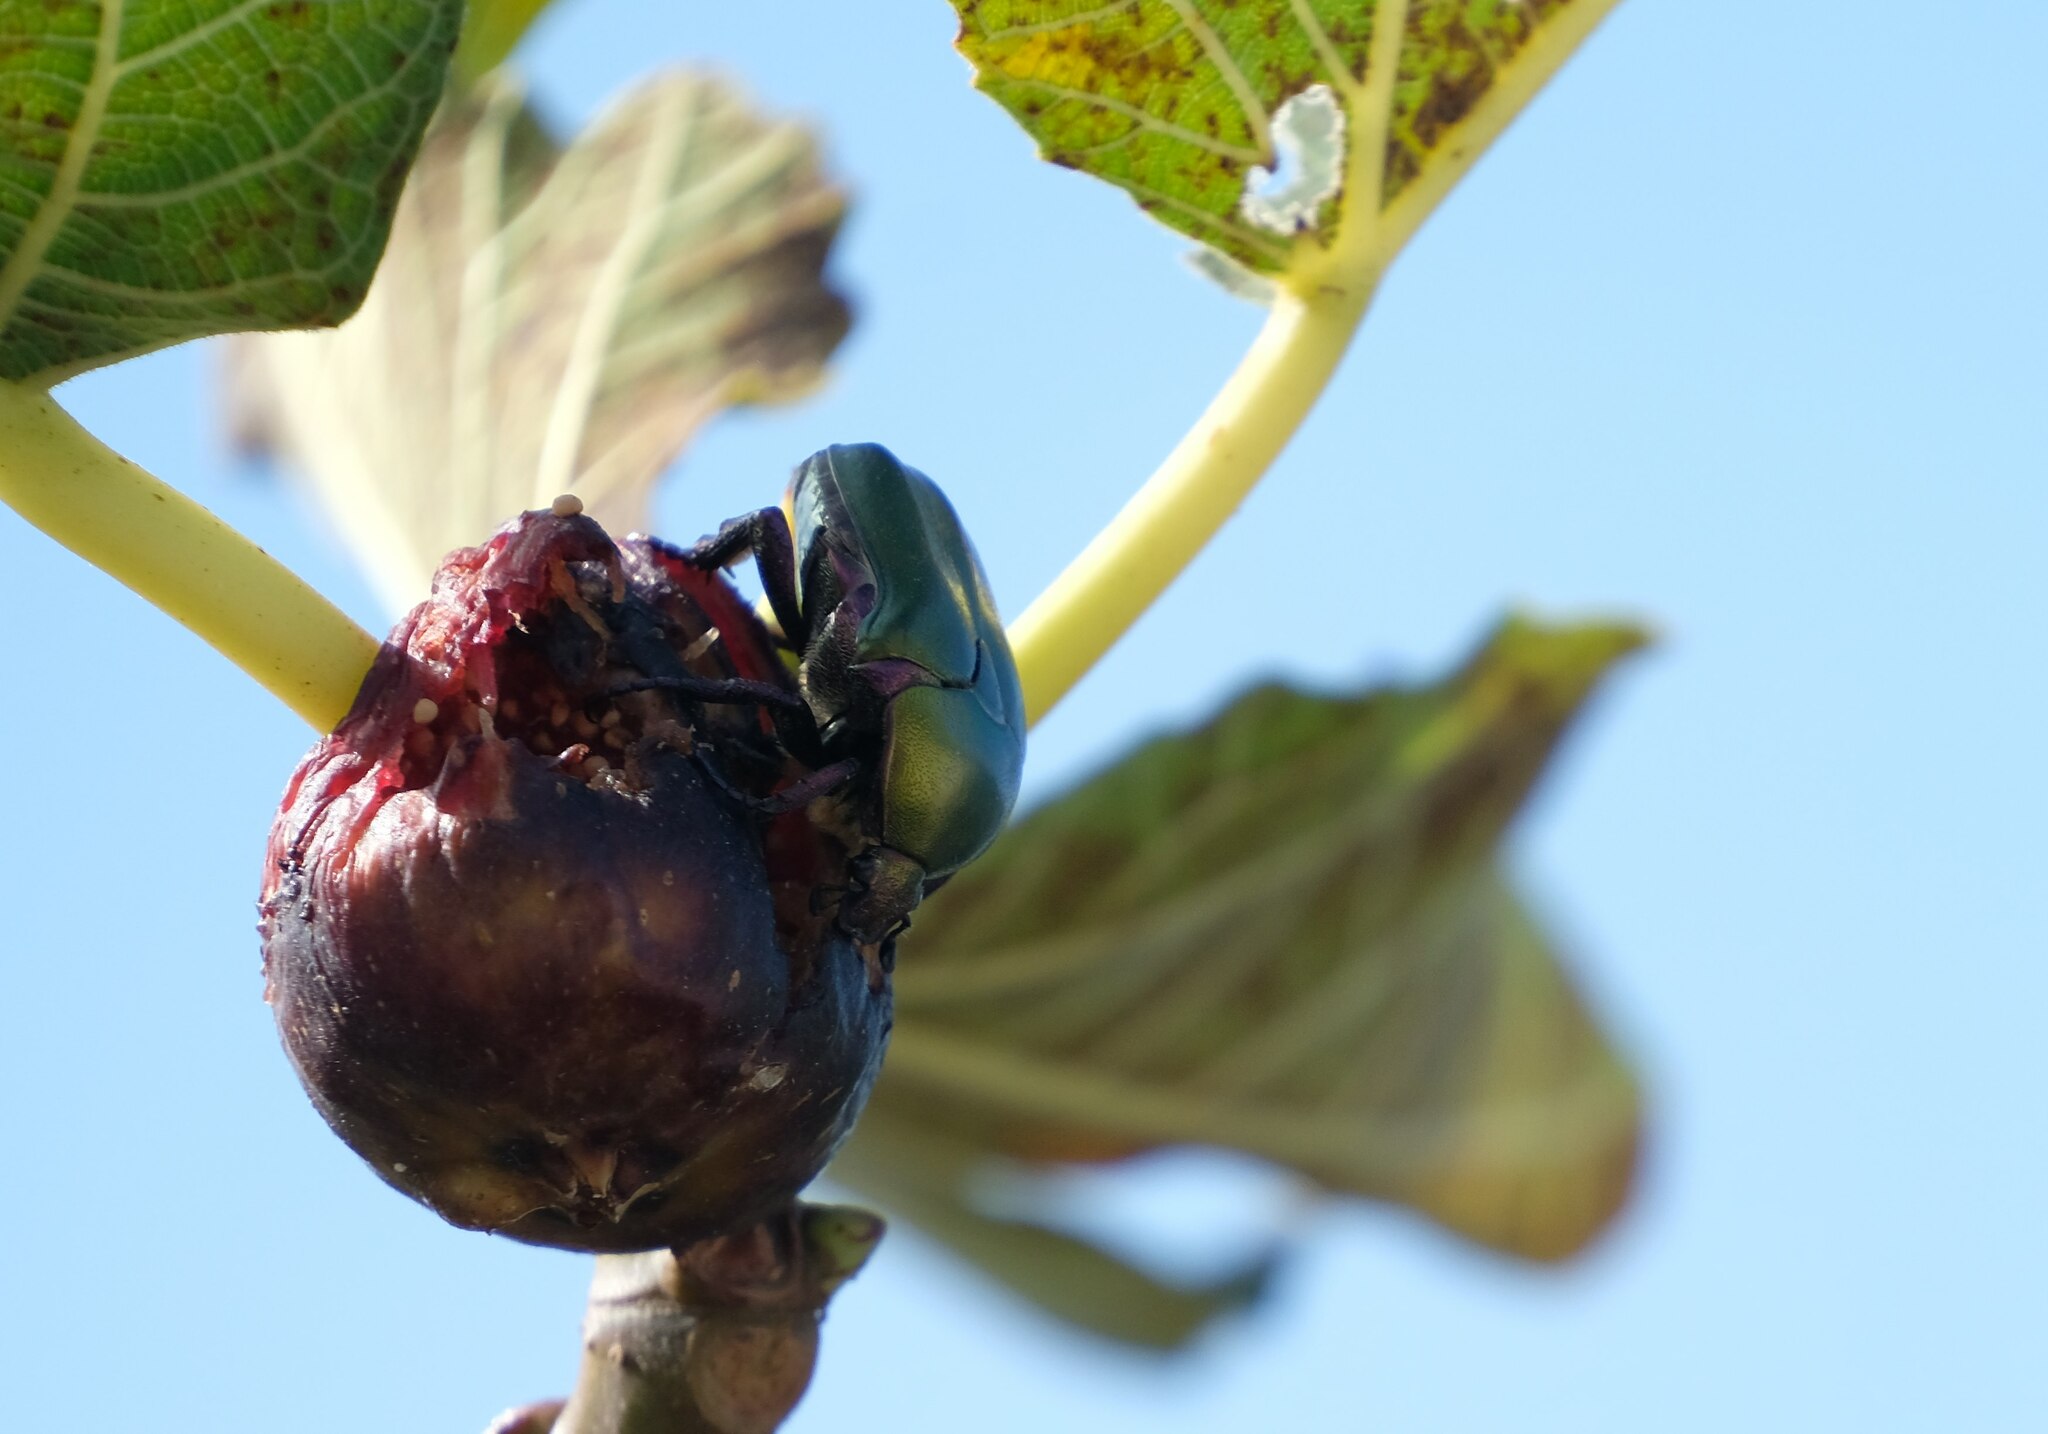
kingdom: Animalia
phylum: Arthropoda
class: Insecta
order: Coleoptera
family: Scarabaeidae
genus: Protaetia
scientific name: Protaetia cuprea
